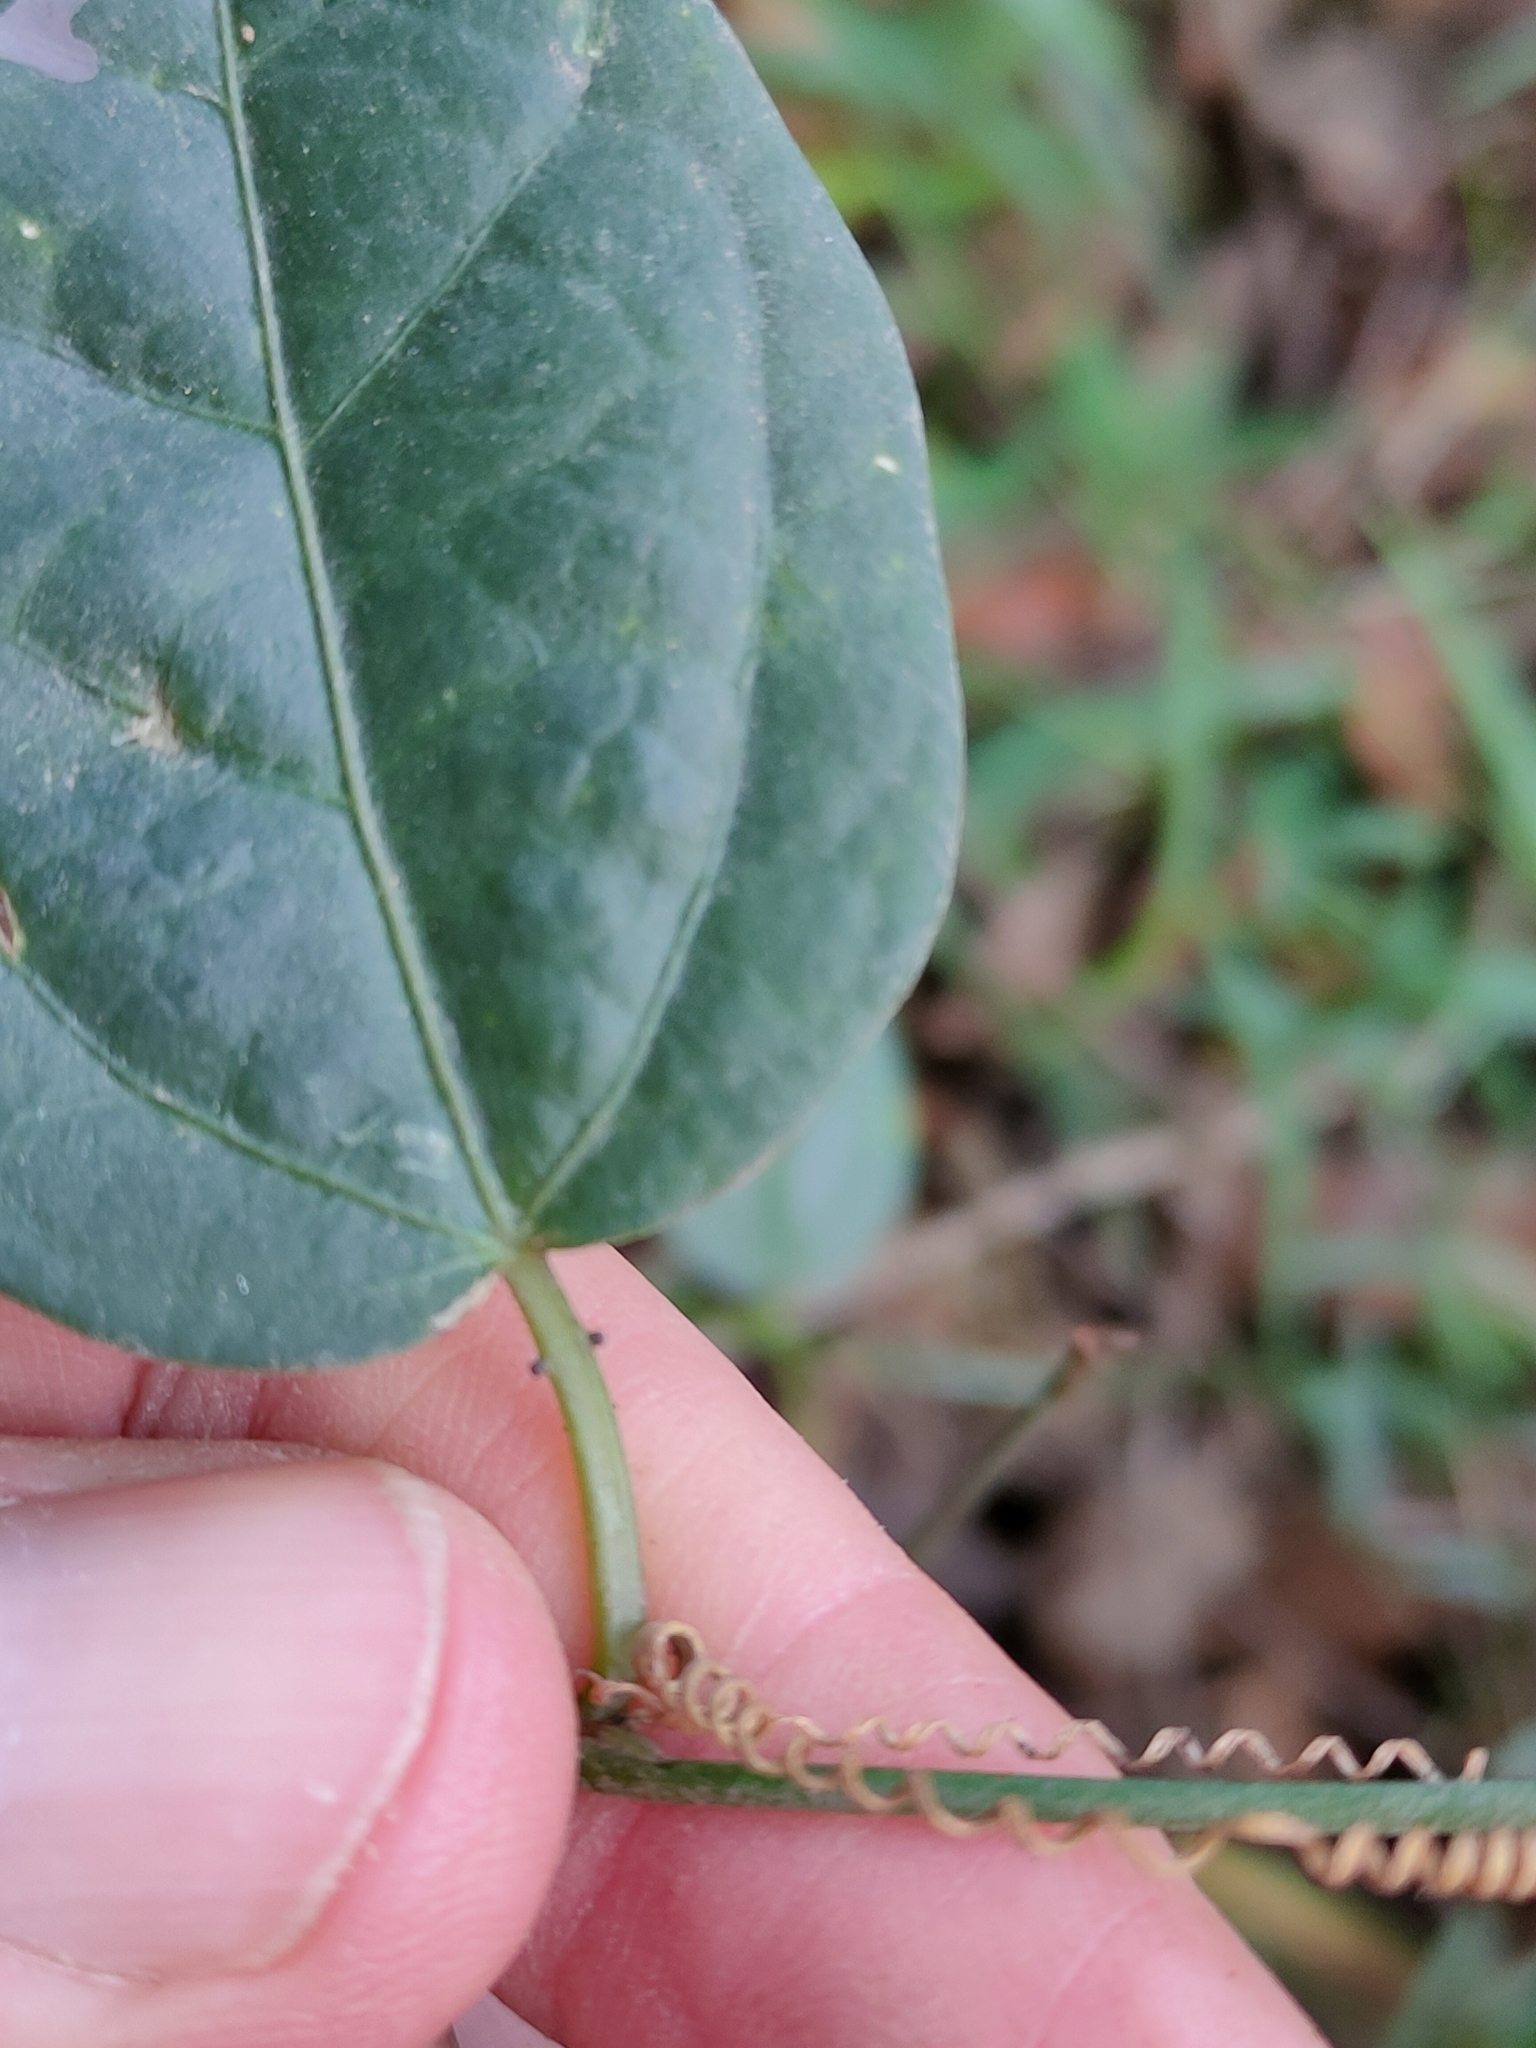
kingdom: Plantae
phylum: Tracheophyta
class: Magnoliopsida
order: Malpighiales
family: Passifloraceae
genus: Passiflora
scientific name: Passiflora pallida
